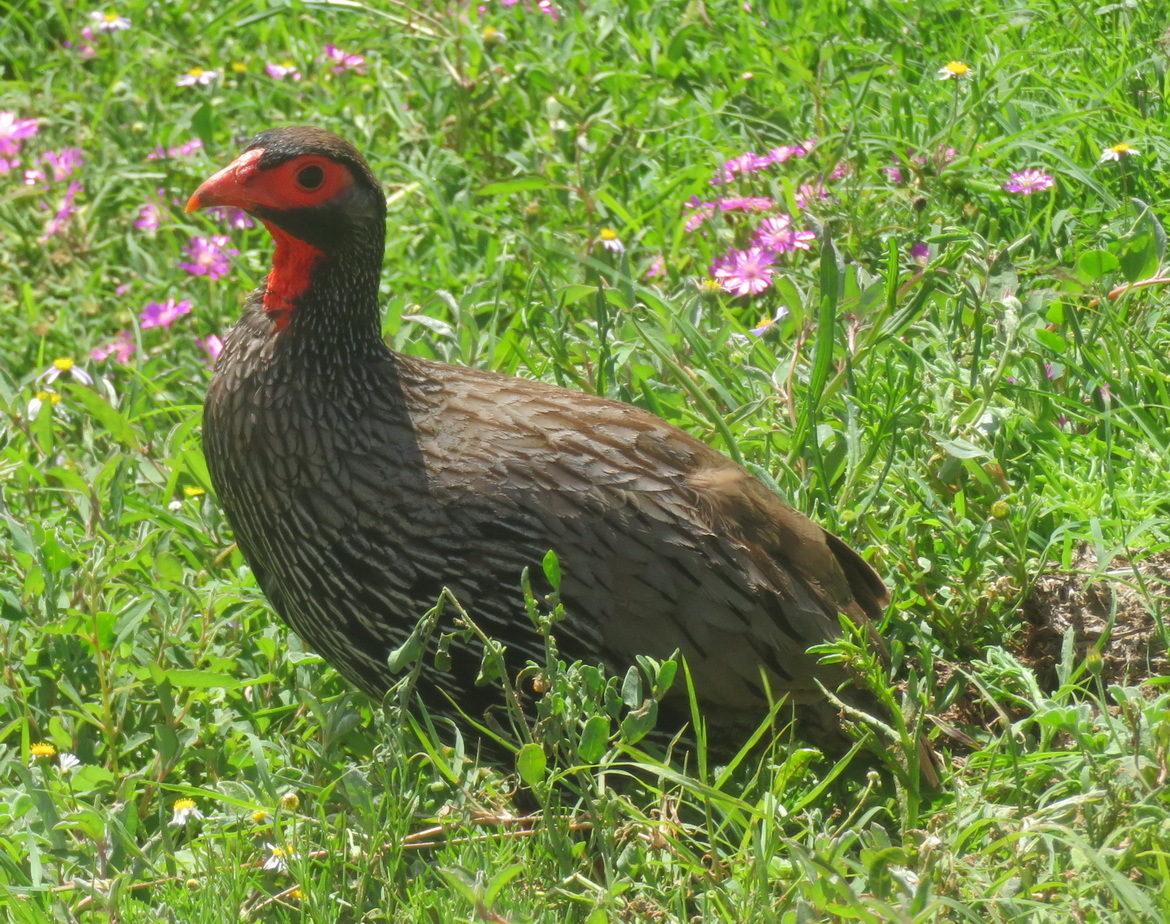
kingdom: Animalia
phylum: Chordata
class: Aves
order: Galliformes
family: Phasianidae
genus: Pternistis
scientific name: Pternistis afer
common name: Red-necked spurfowl
